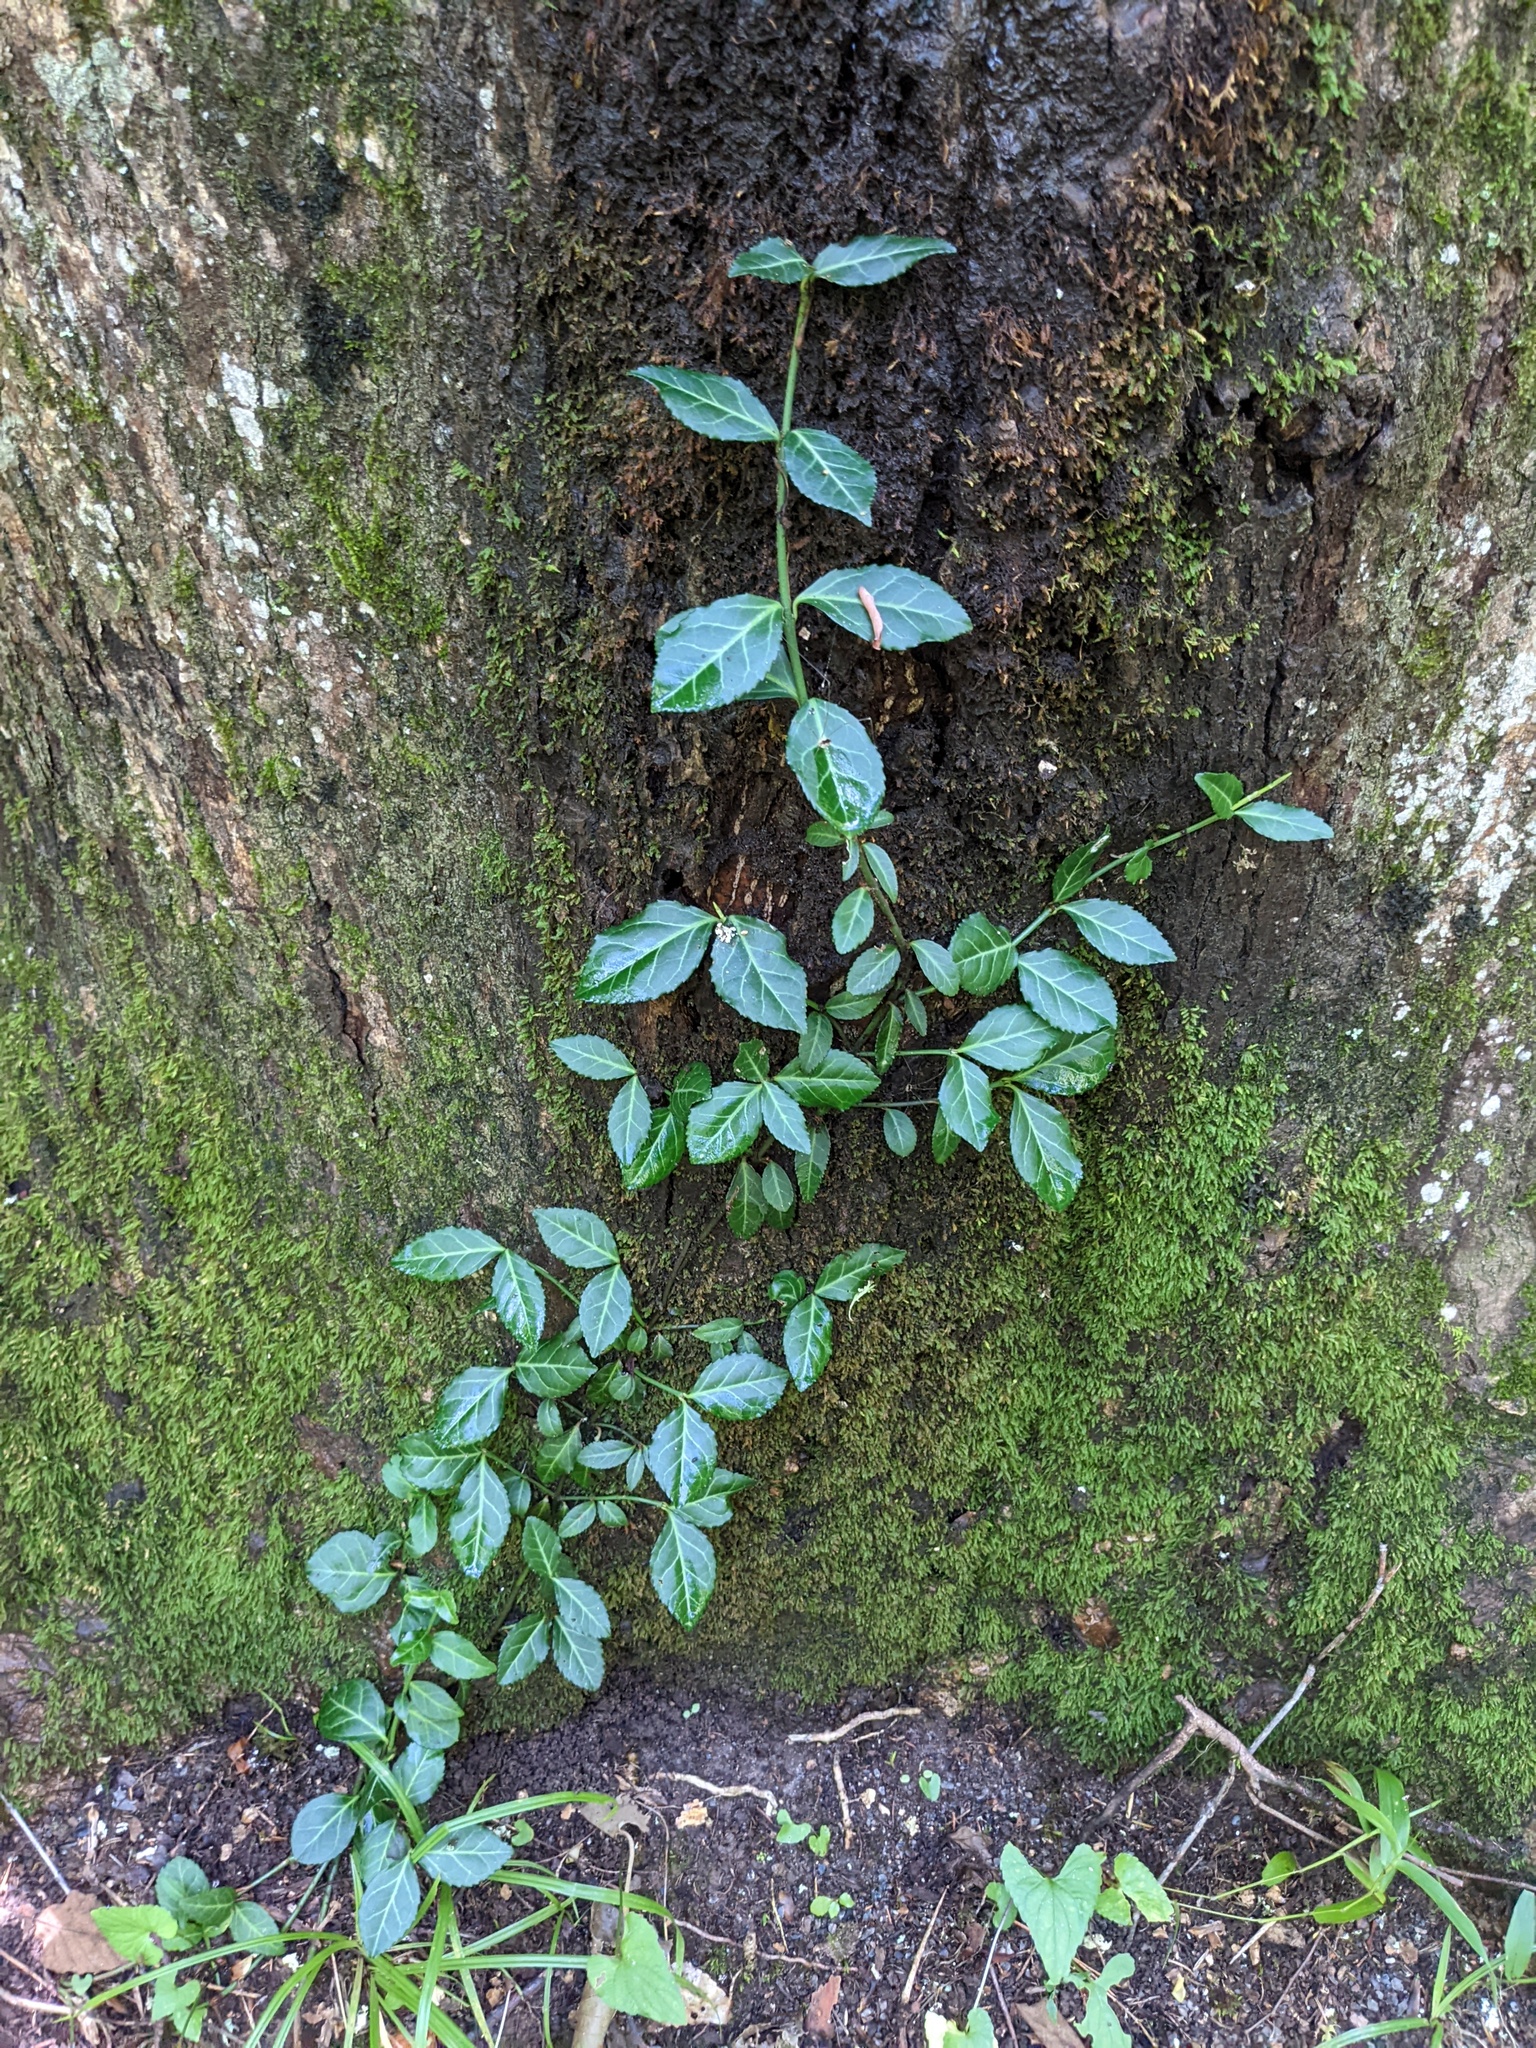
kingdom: Plantae
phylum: Tracheophyta
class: Magnoliopsida
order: Celastrales
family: Celastraceae
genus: Euonymus
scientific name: Euonymus fortunei
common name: Climbing euonymus
